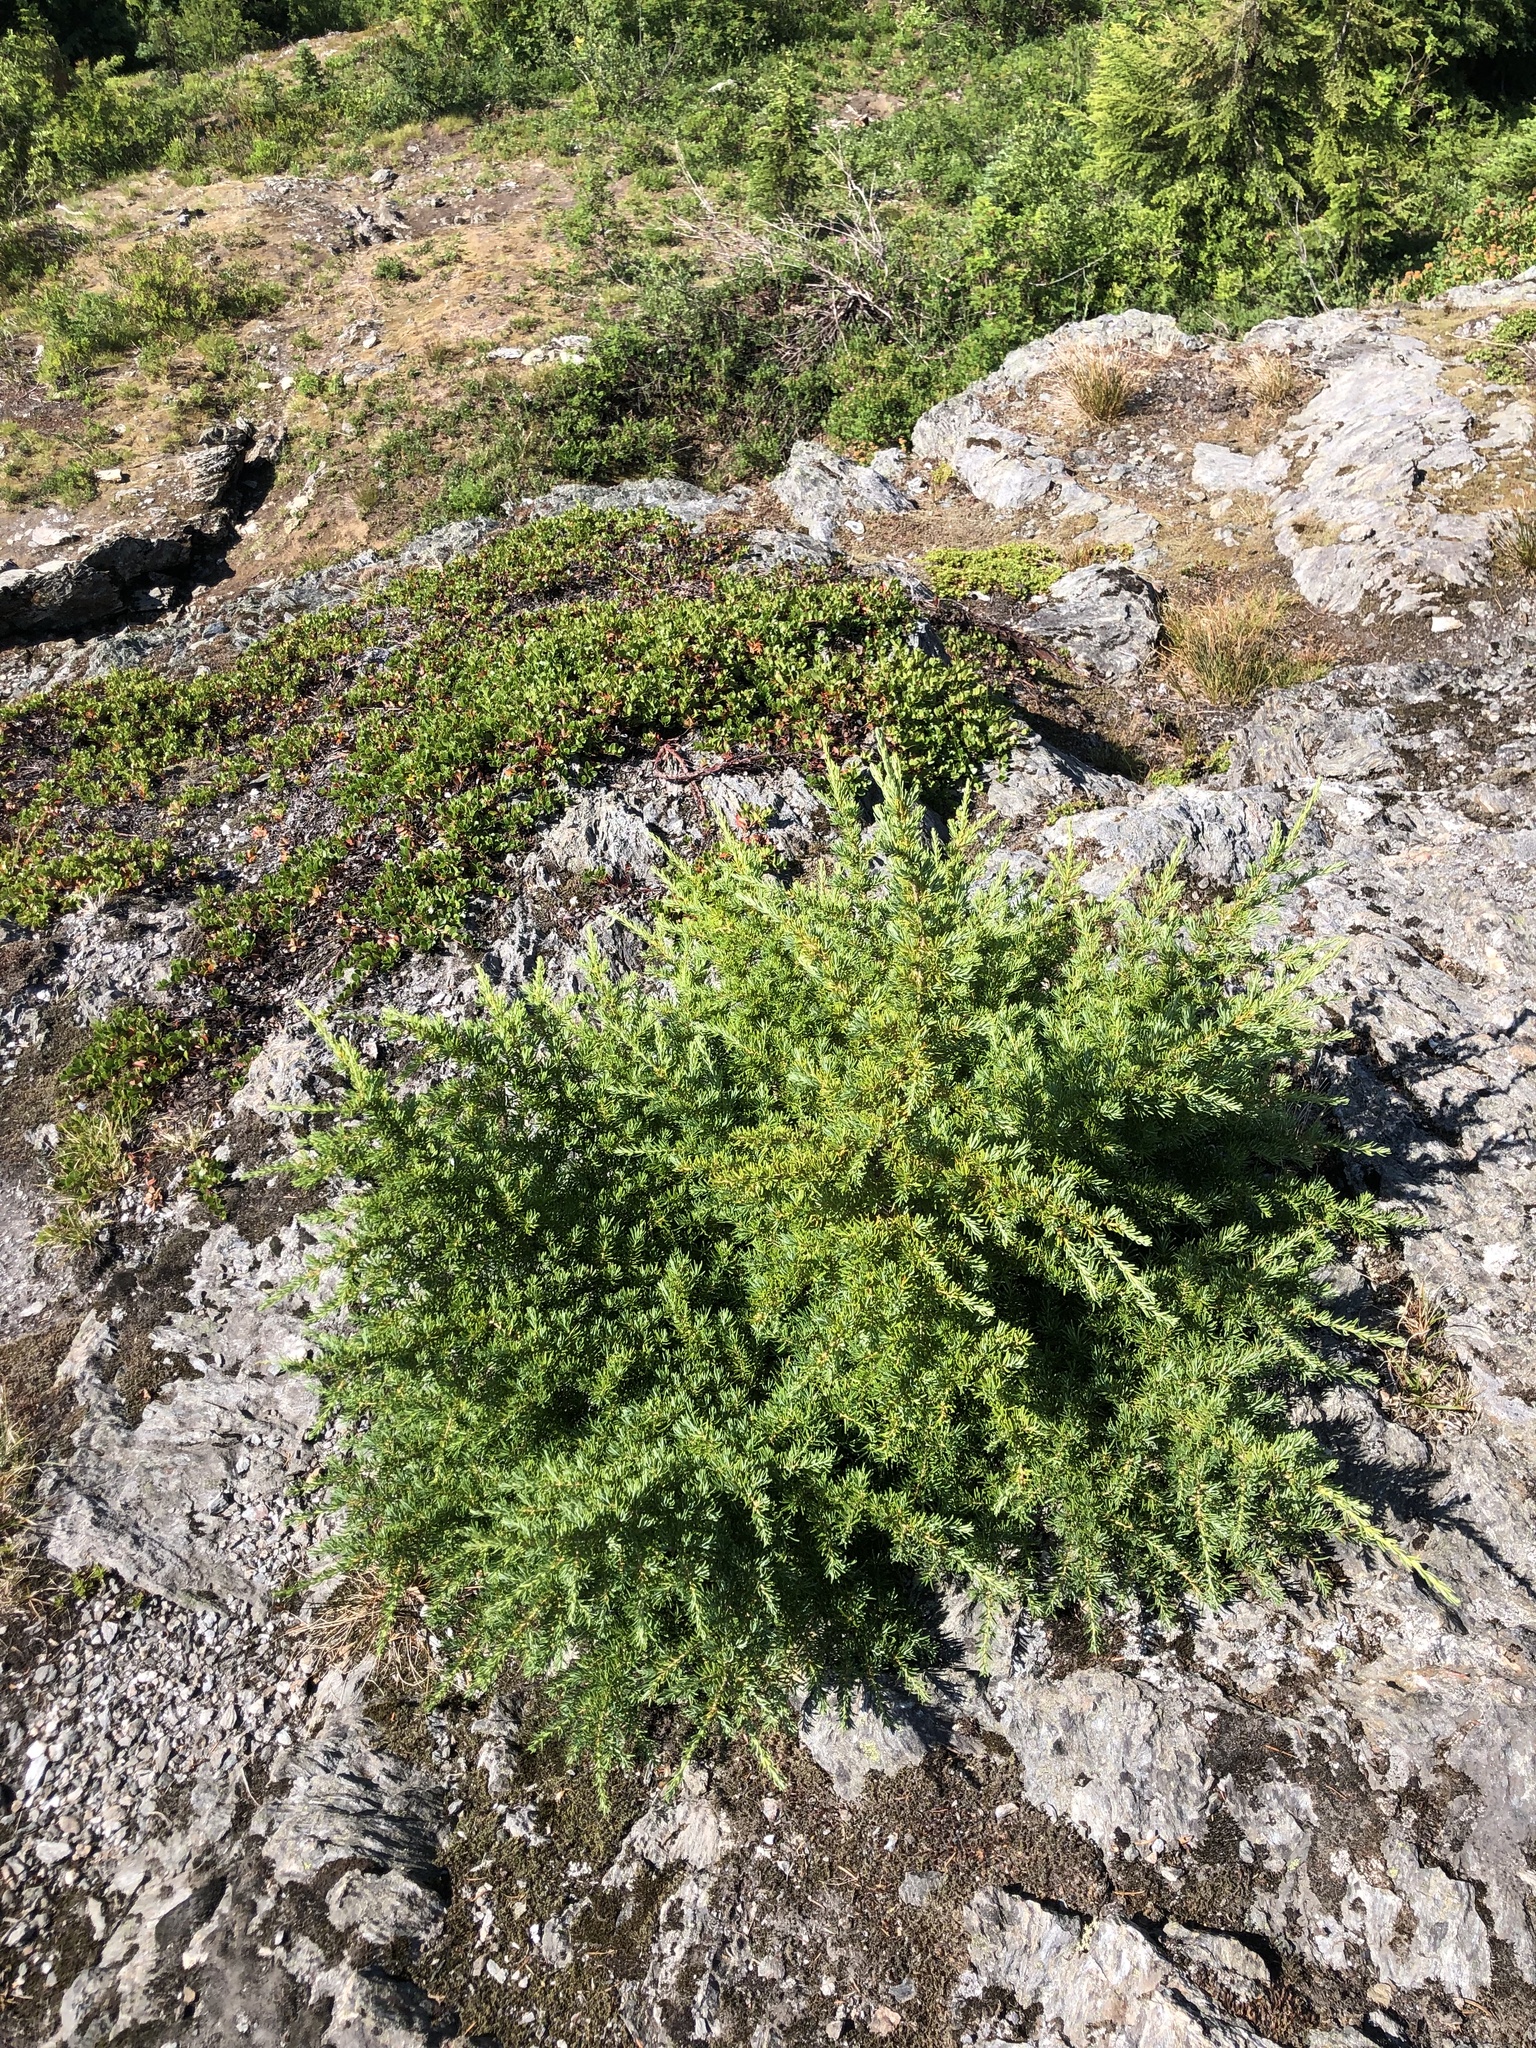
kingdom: Plantae
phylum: Tracheophyta
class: Pinopsida
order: Pinales
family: Pinaceae
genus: Tsuga
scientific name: Tsuga mertensiana
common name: Mountain hemlock
